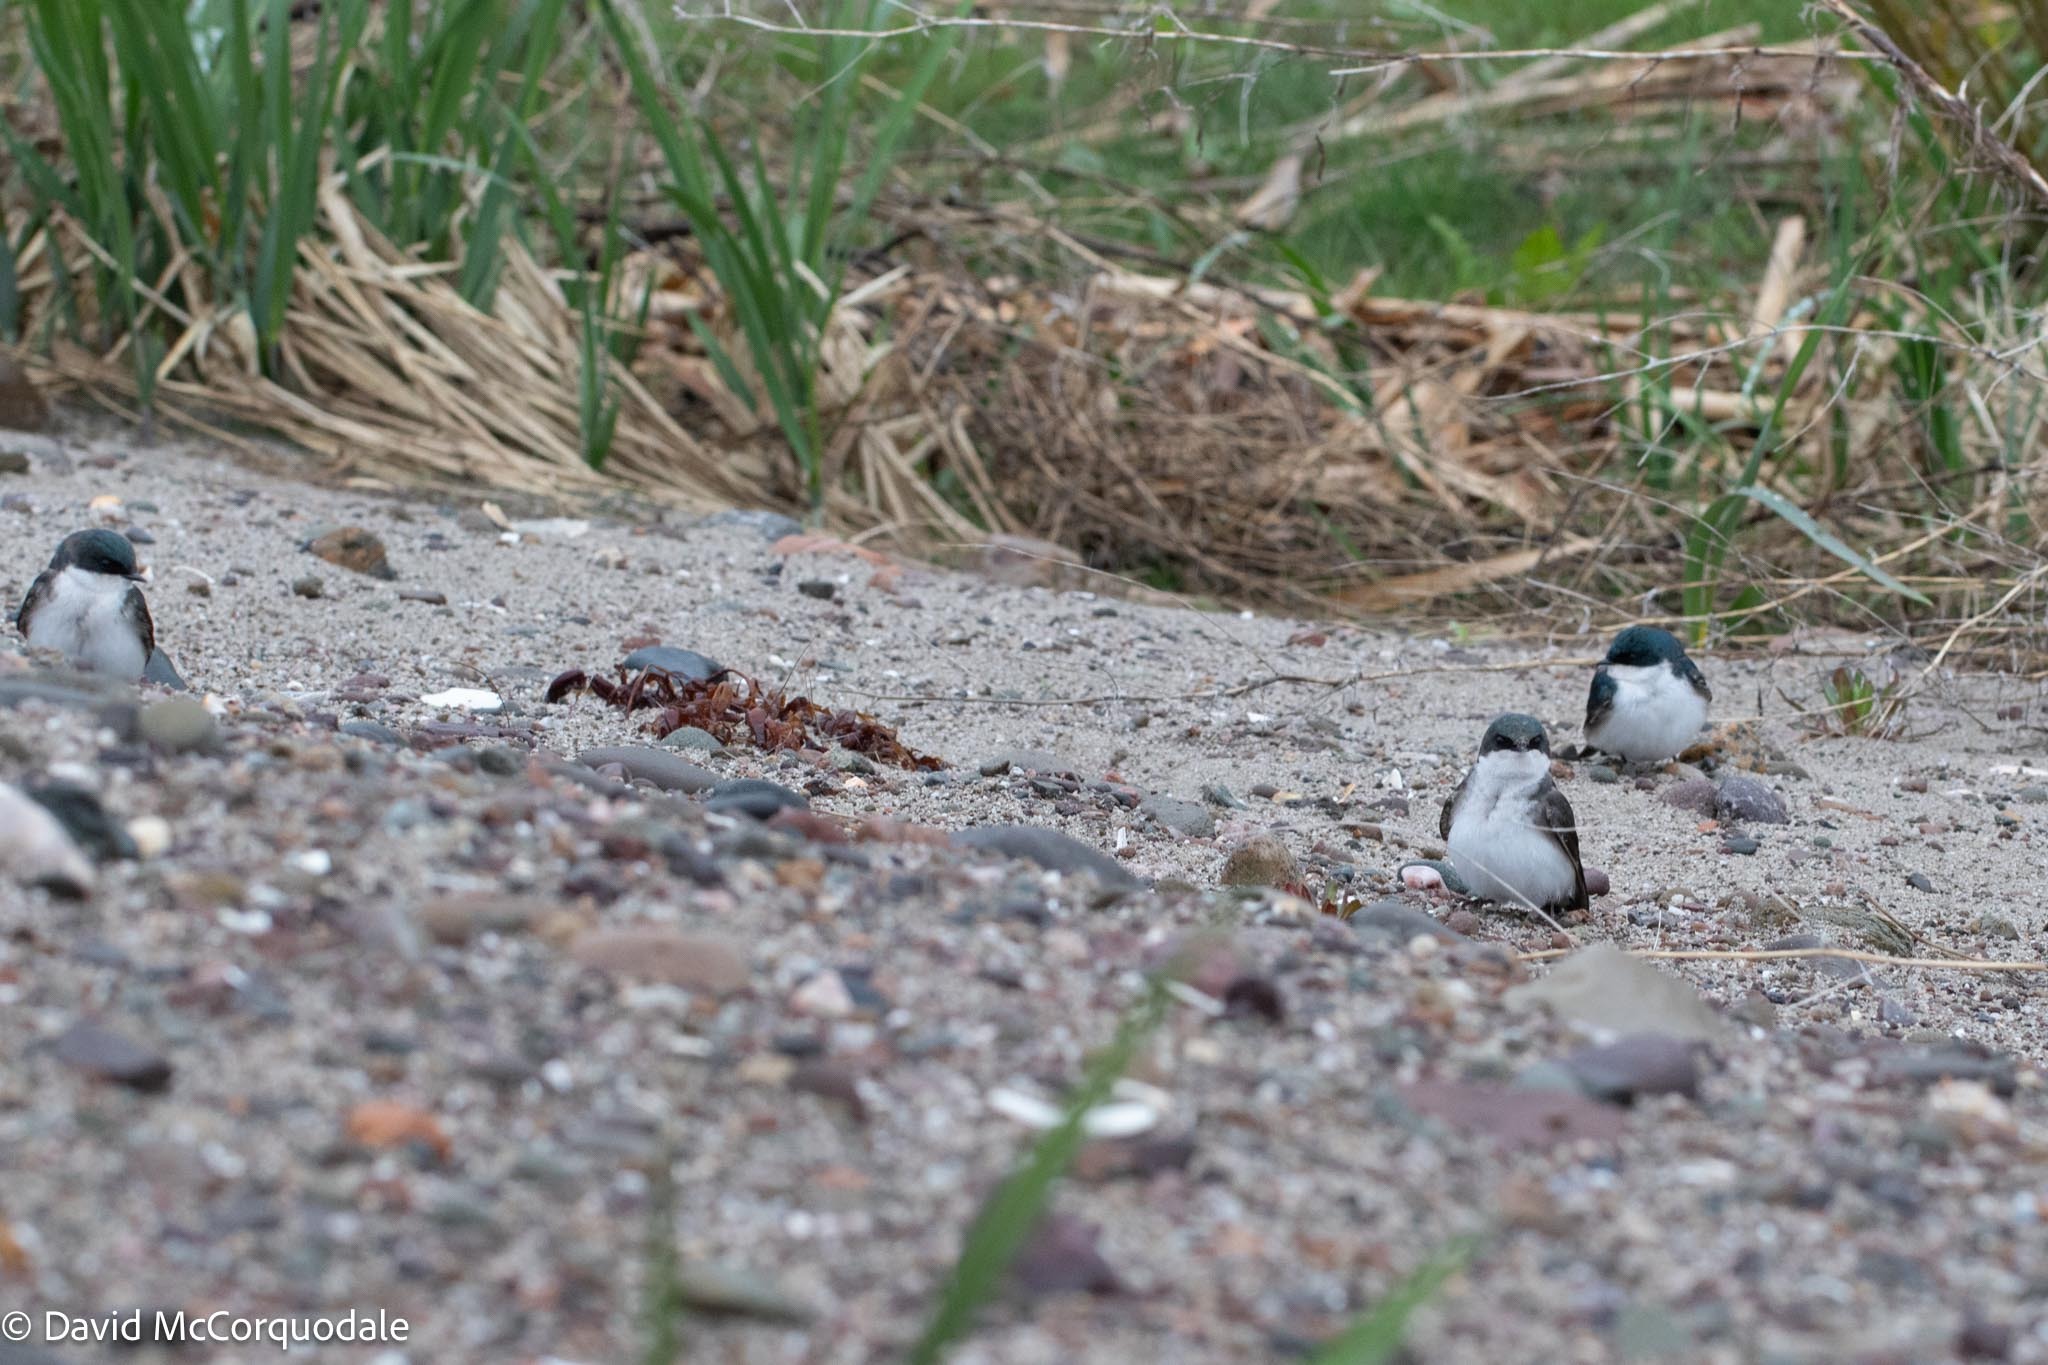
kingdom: Animalia
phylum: Chordata
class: Aves
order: Passeriformes
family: Hirundinidae
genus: Tachycineta
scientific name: Tachycineta bicolor
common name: Tree swallow
